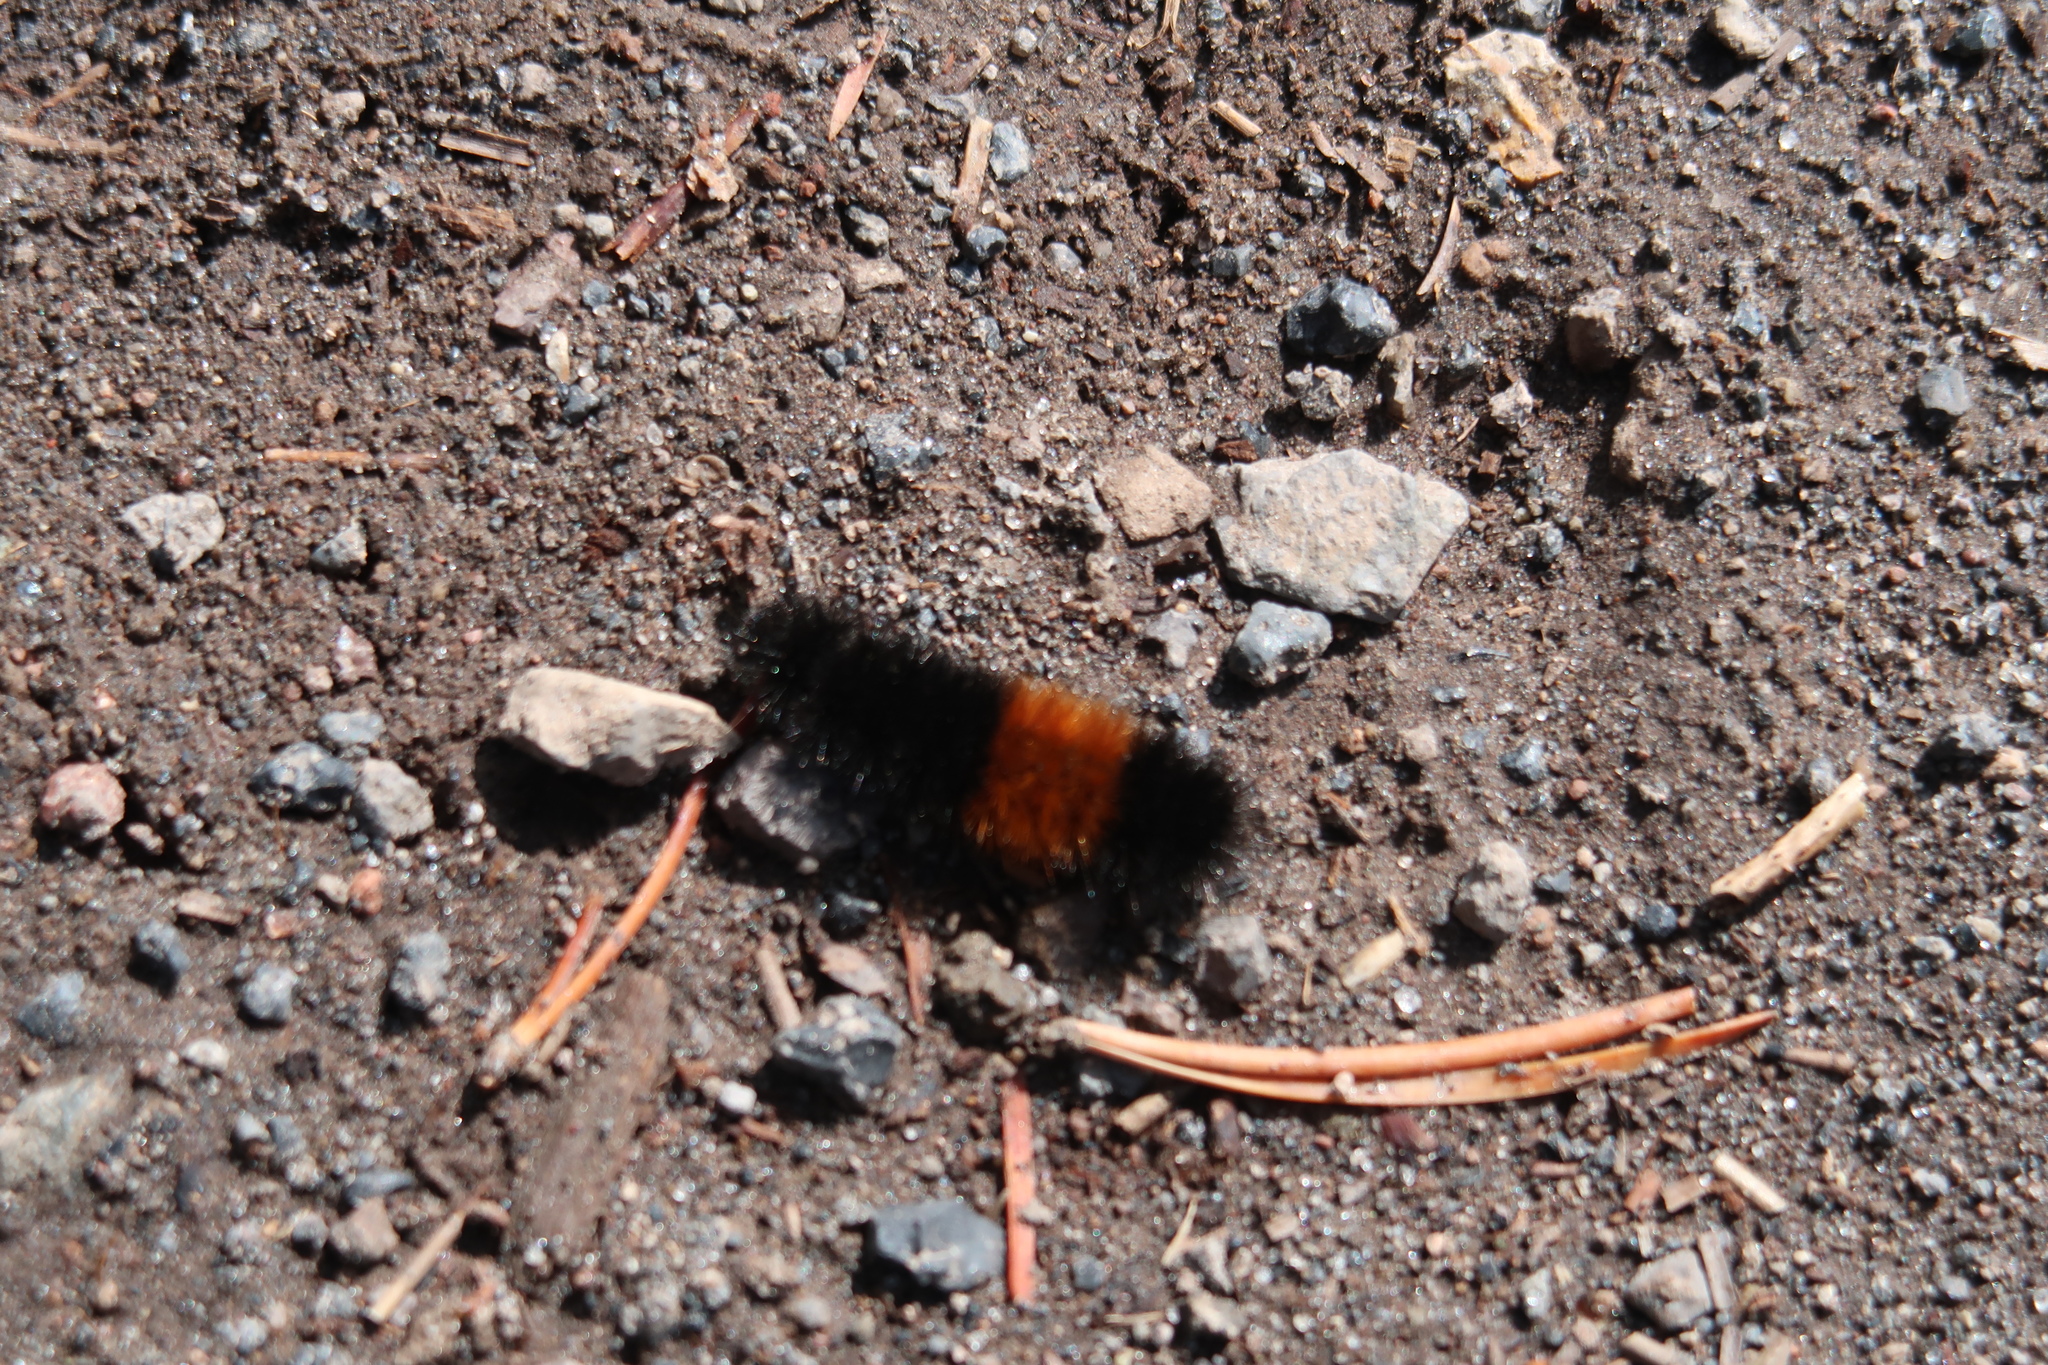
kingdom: Animalia
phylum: Arthropoda
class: Insecta
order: Lepidoptera
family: Erebidae
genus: Pyrrharctia
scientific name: Pyrrharctia isabella
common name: Isabella tiger moth
